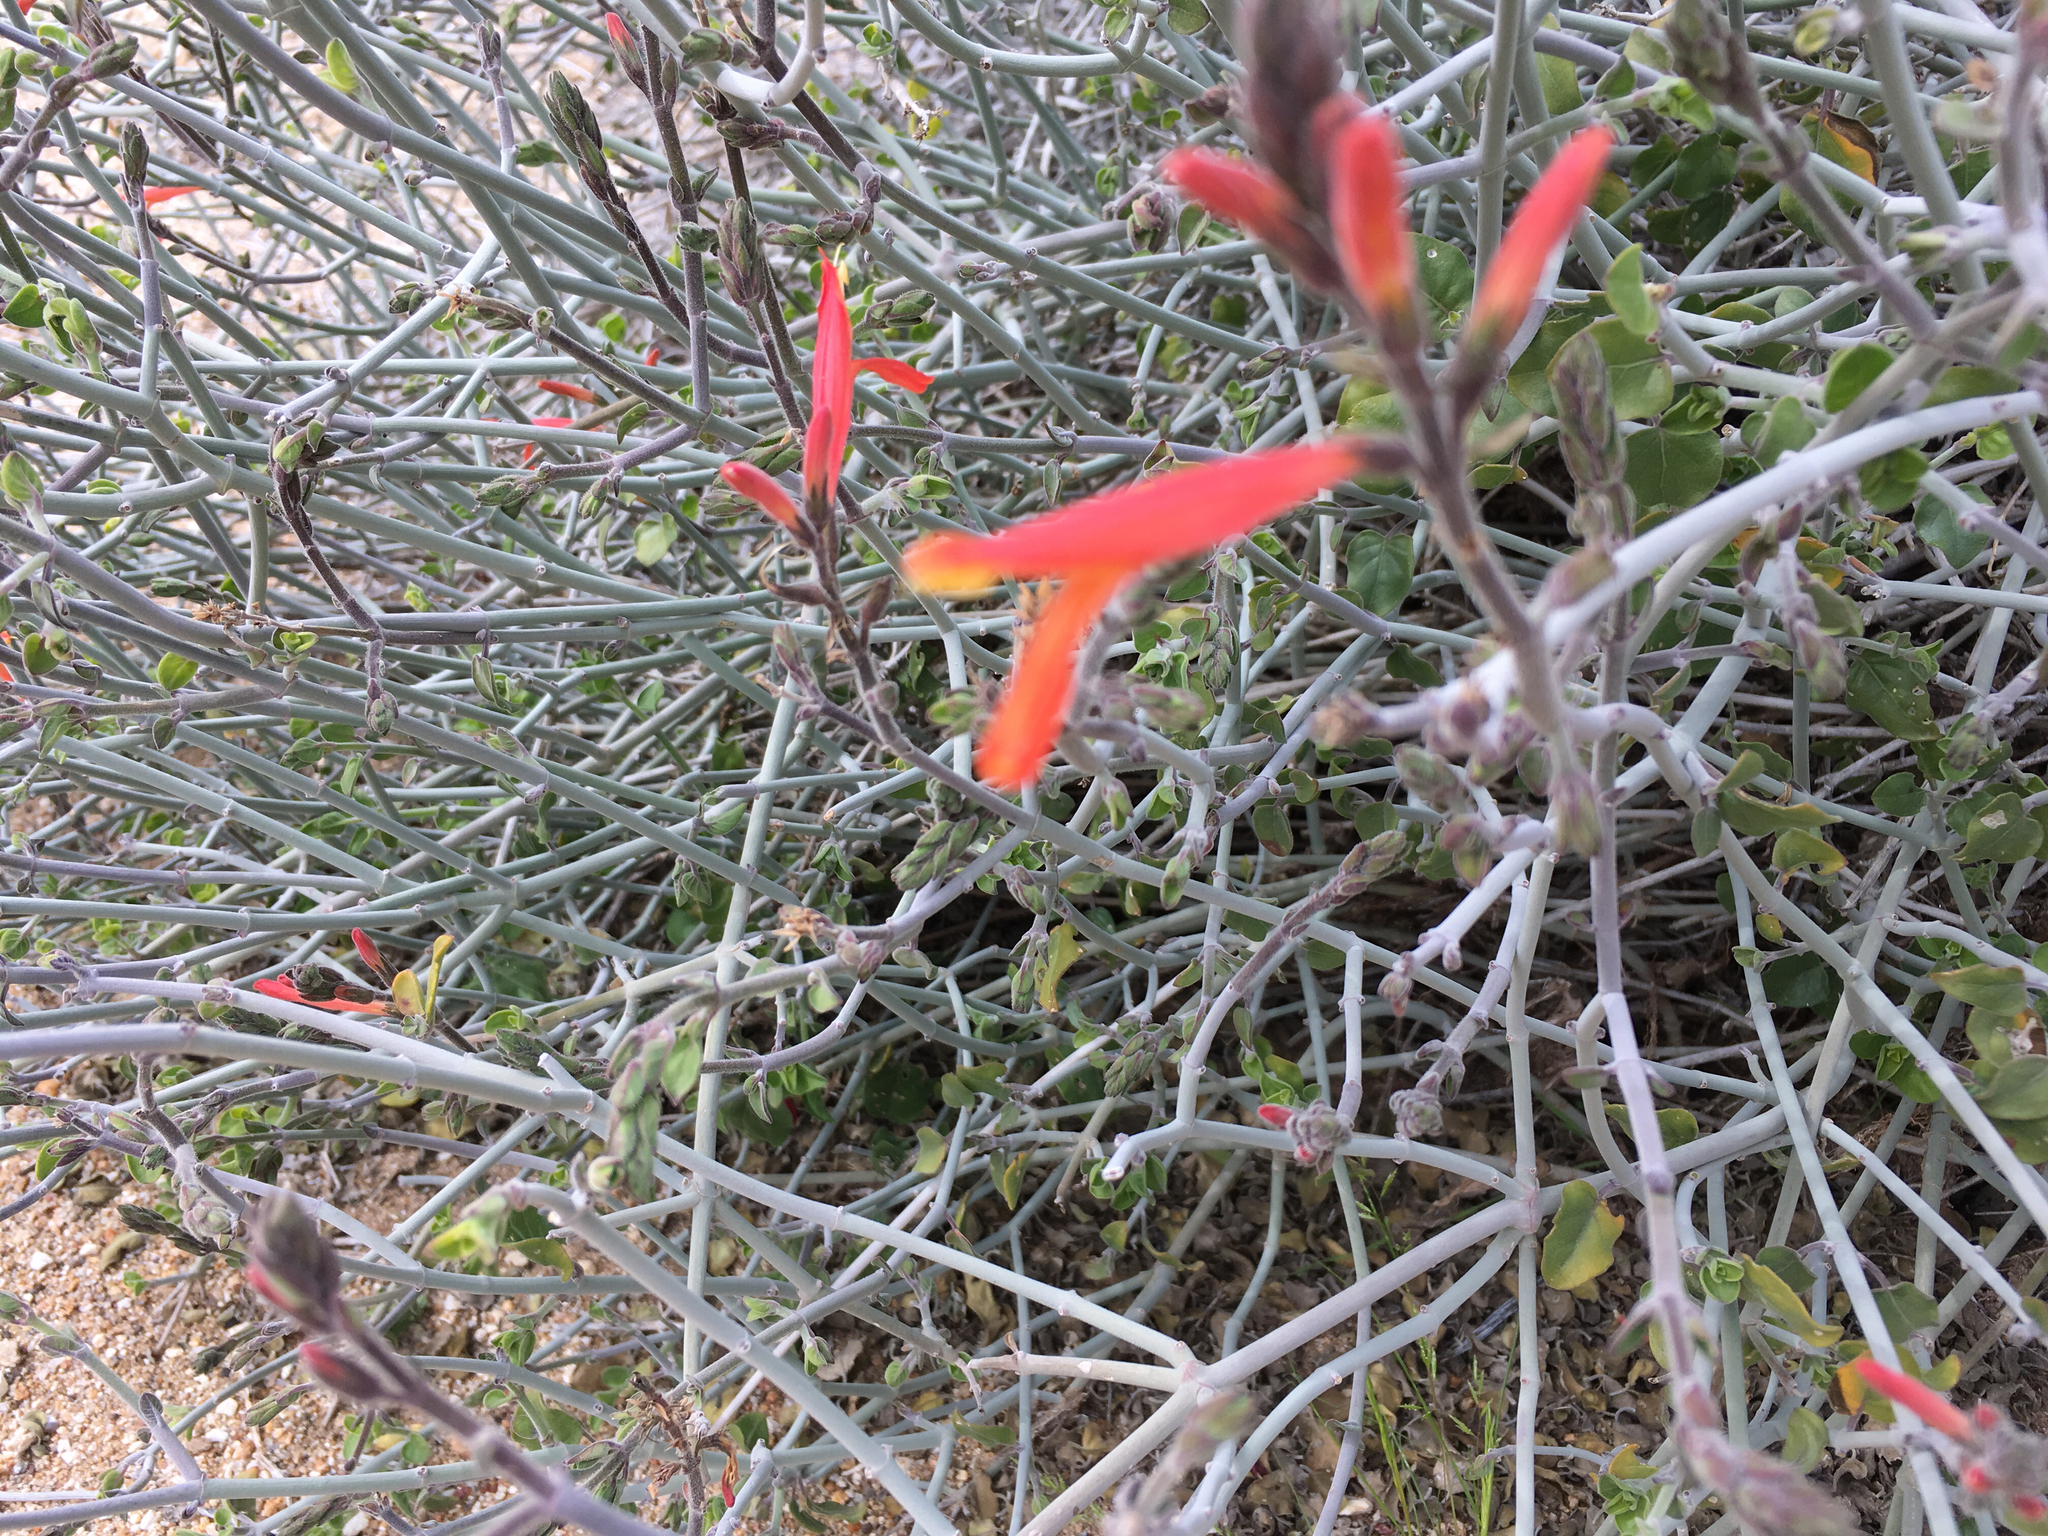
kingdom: Plantae
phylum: Tracheophyta
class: Magnoliopsida
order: Lamiales
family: Acanthaceae
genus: Justicia
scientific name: Justicia californica
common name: Chuparosa-honeysuckle
